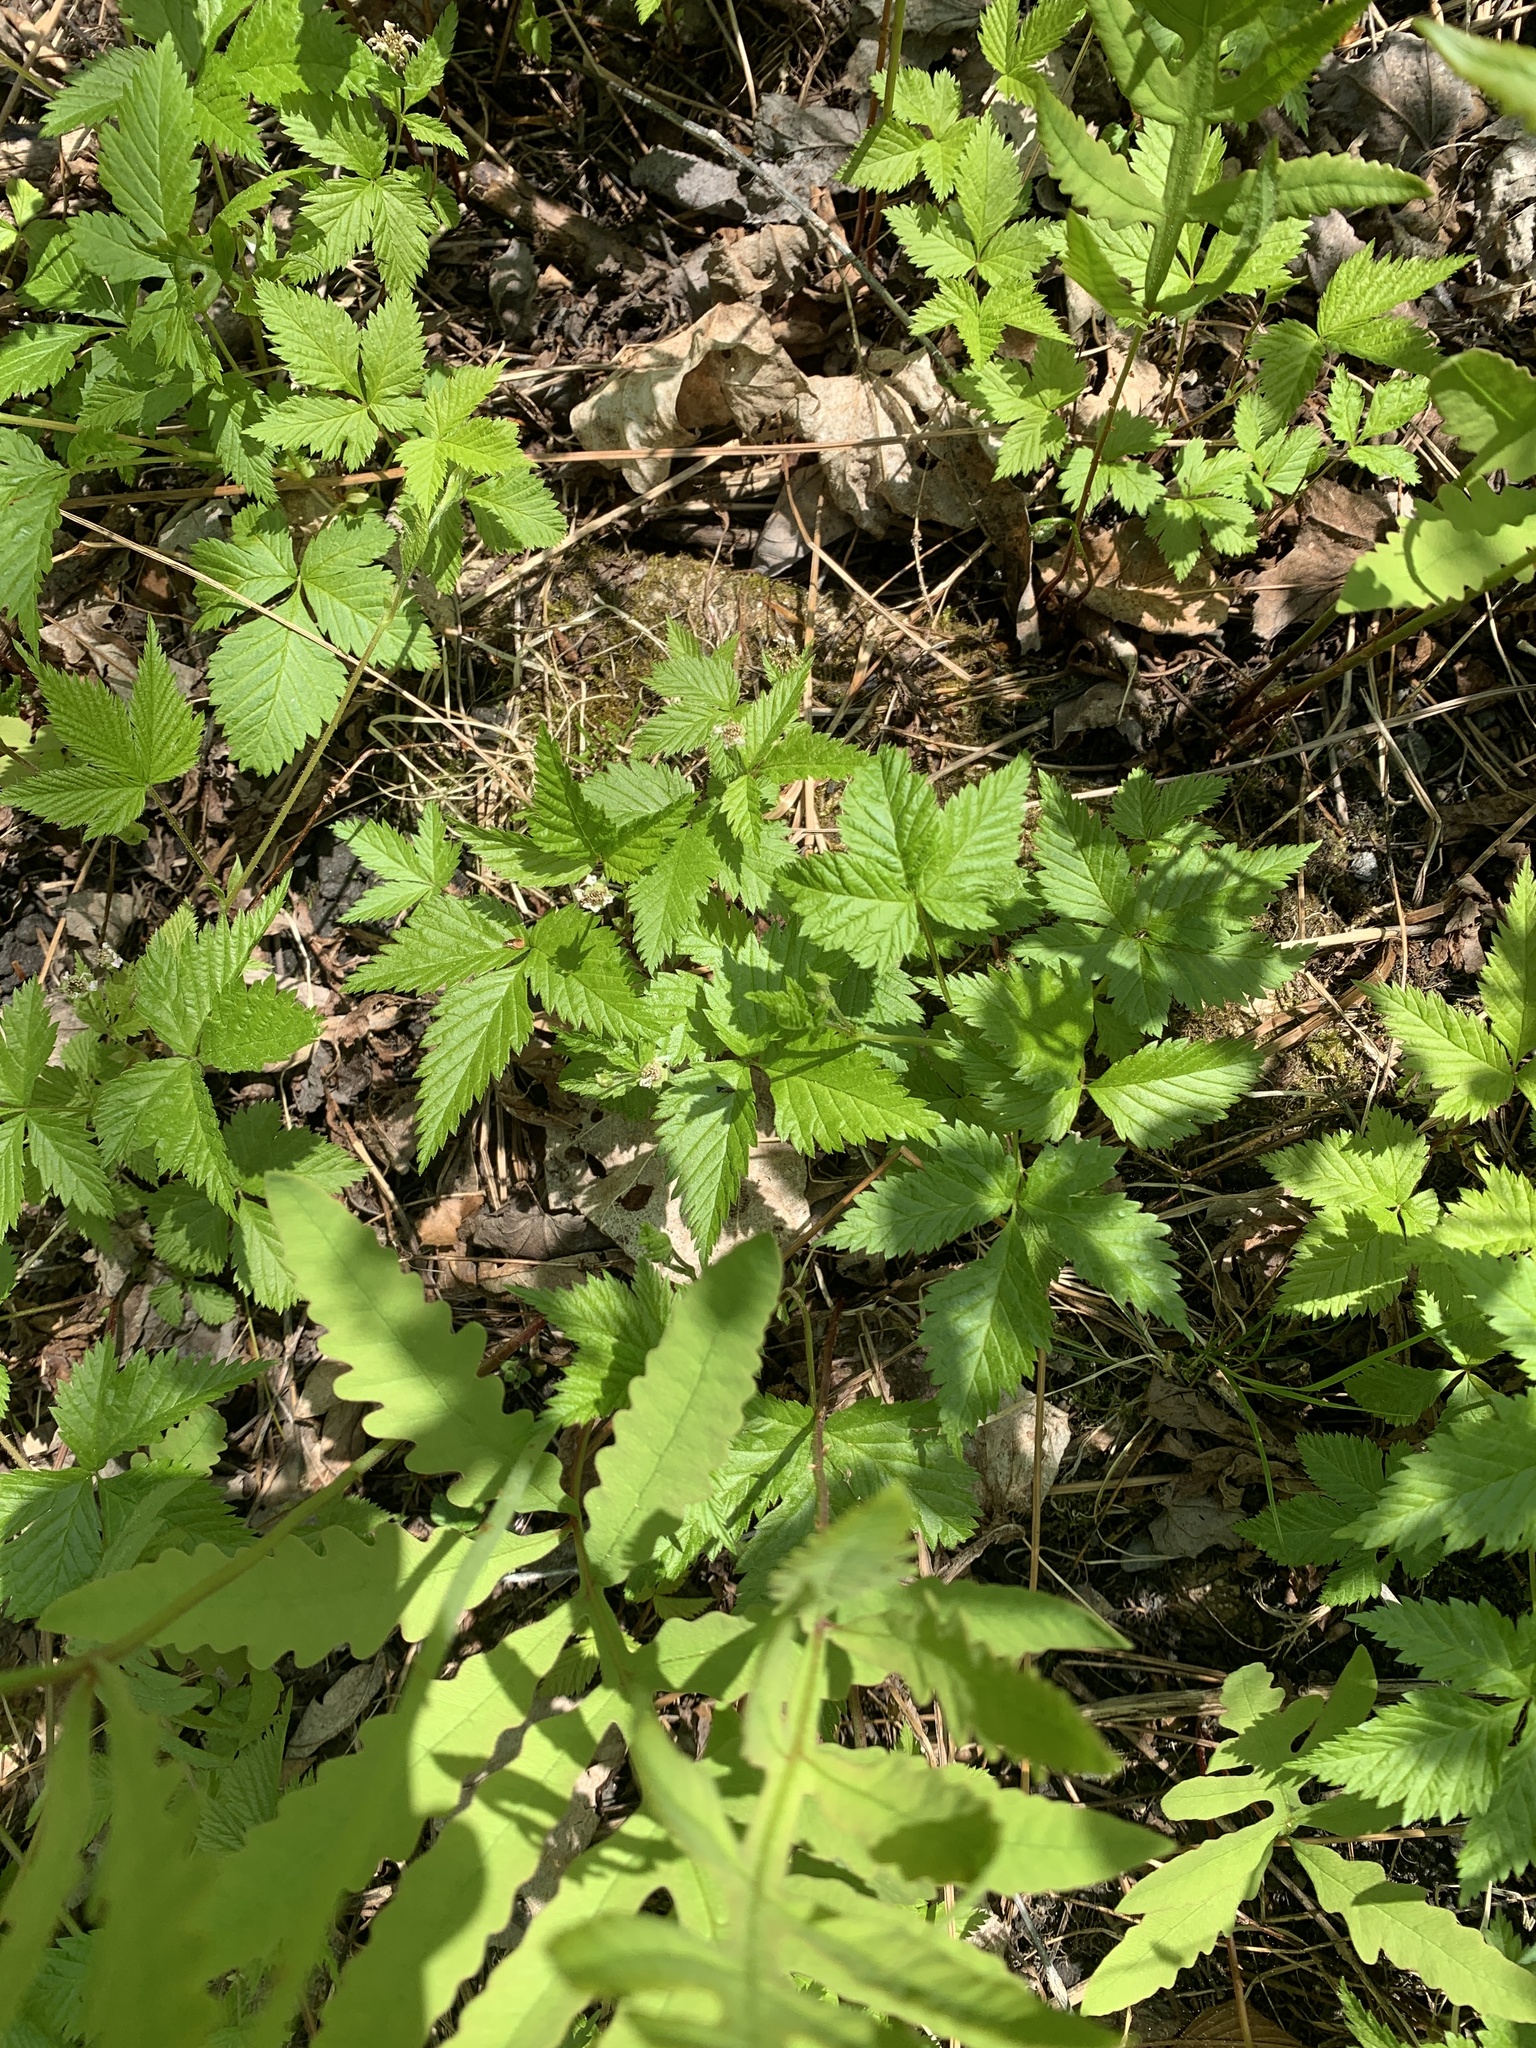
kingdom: Plantae
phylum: Tracheophyta
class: Magnoliopsida
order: Rosales
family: Rosaceae
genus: Rubus
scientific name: Rubus pubescens
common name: Dwarf raspberry
